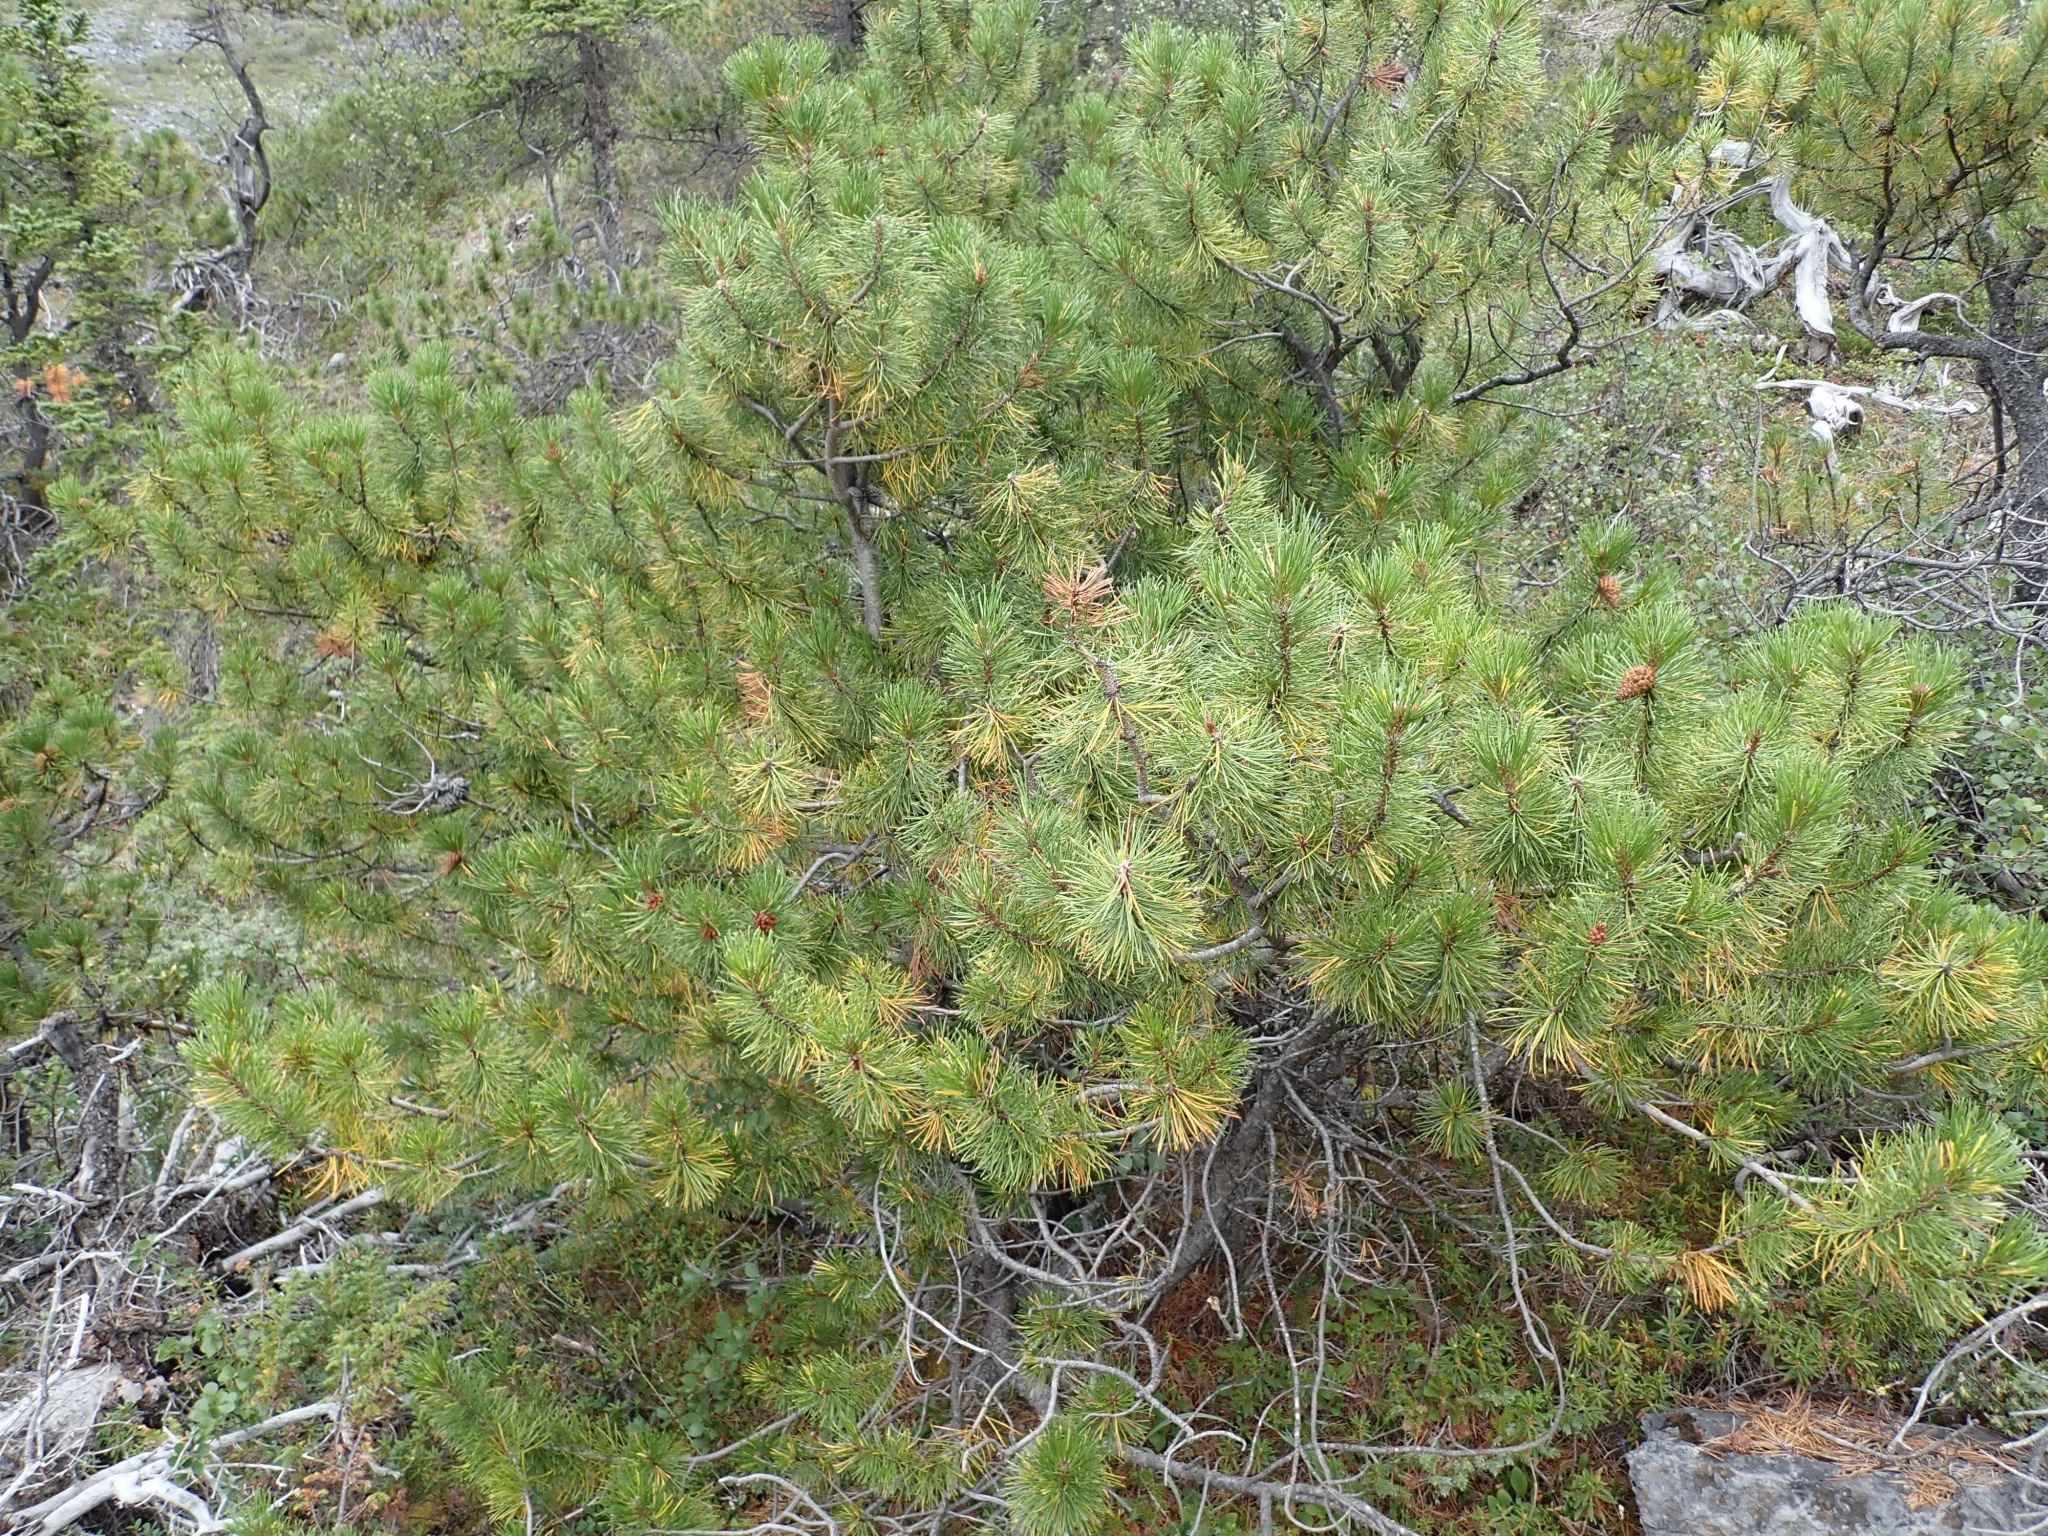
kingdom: Plantae
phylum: Tracheophyta
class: Pinopsida
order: Pinales
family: Pinaceae
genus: Pinus
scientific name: Pinus contorta
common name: Lodgepole pine
